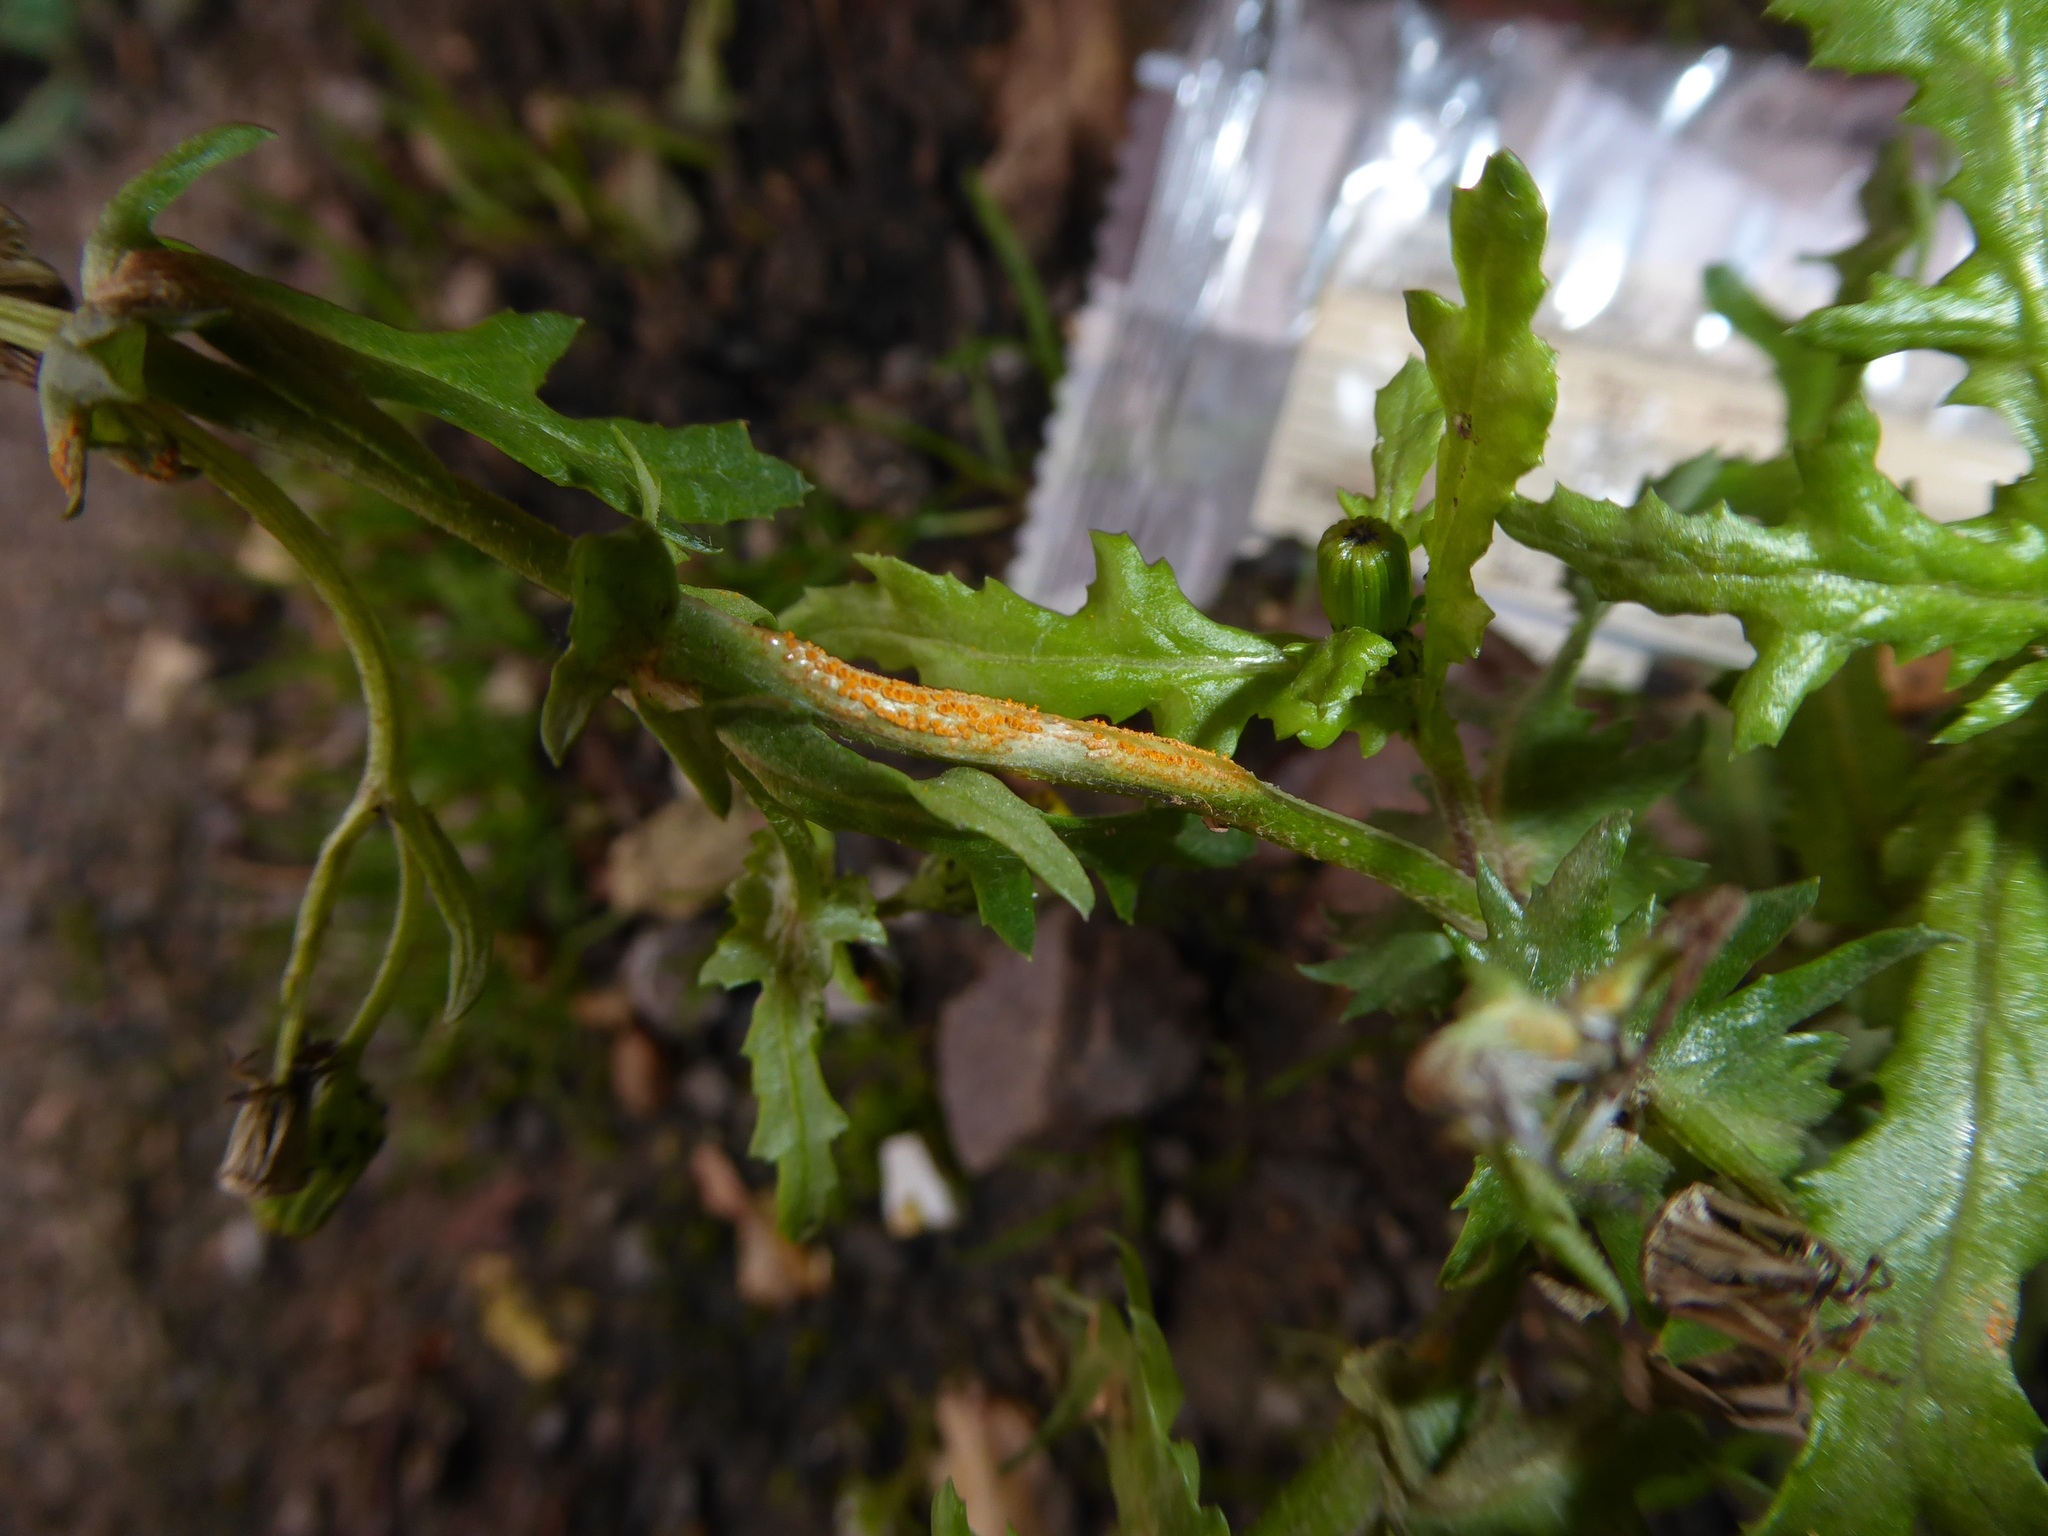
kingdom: Fungi
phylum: Basidiomycota
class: Pucciniomycetes
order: Pucciniales
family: Pucciniaceae
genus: Puccinia
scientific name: Puccinia lagenophorae
